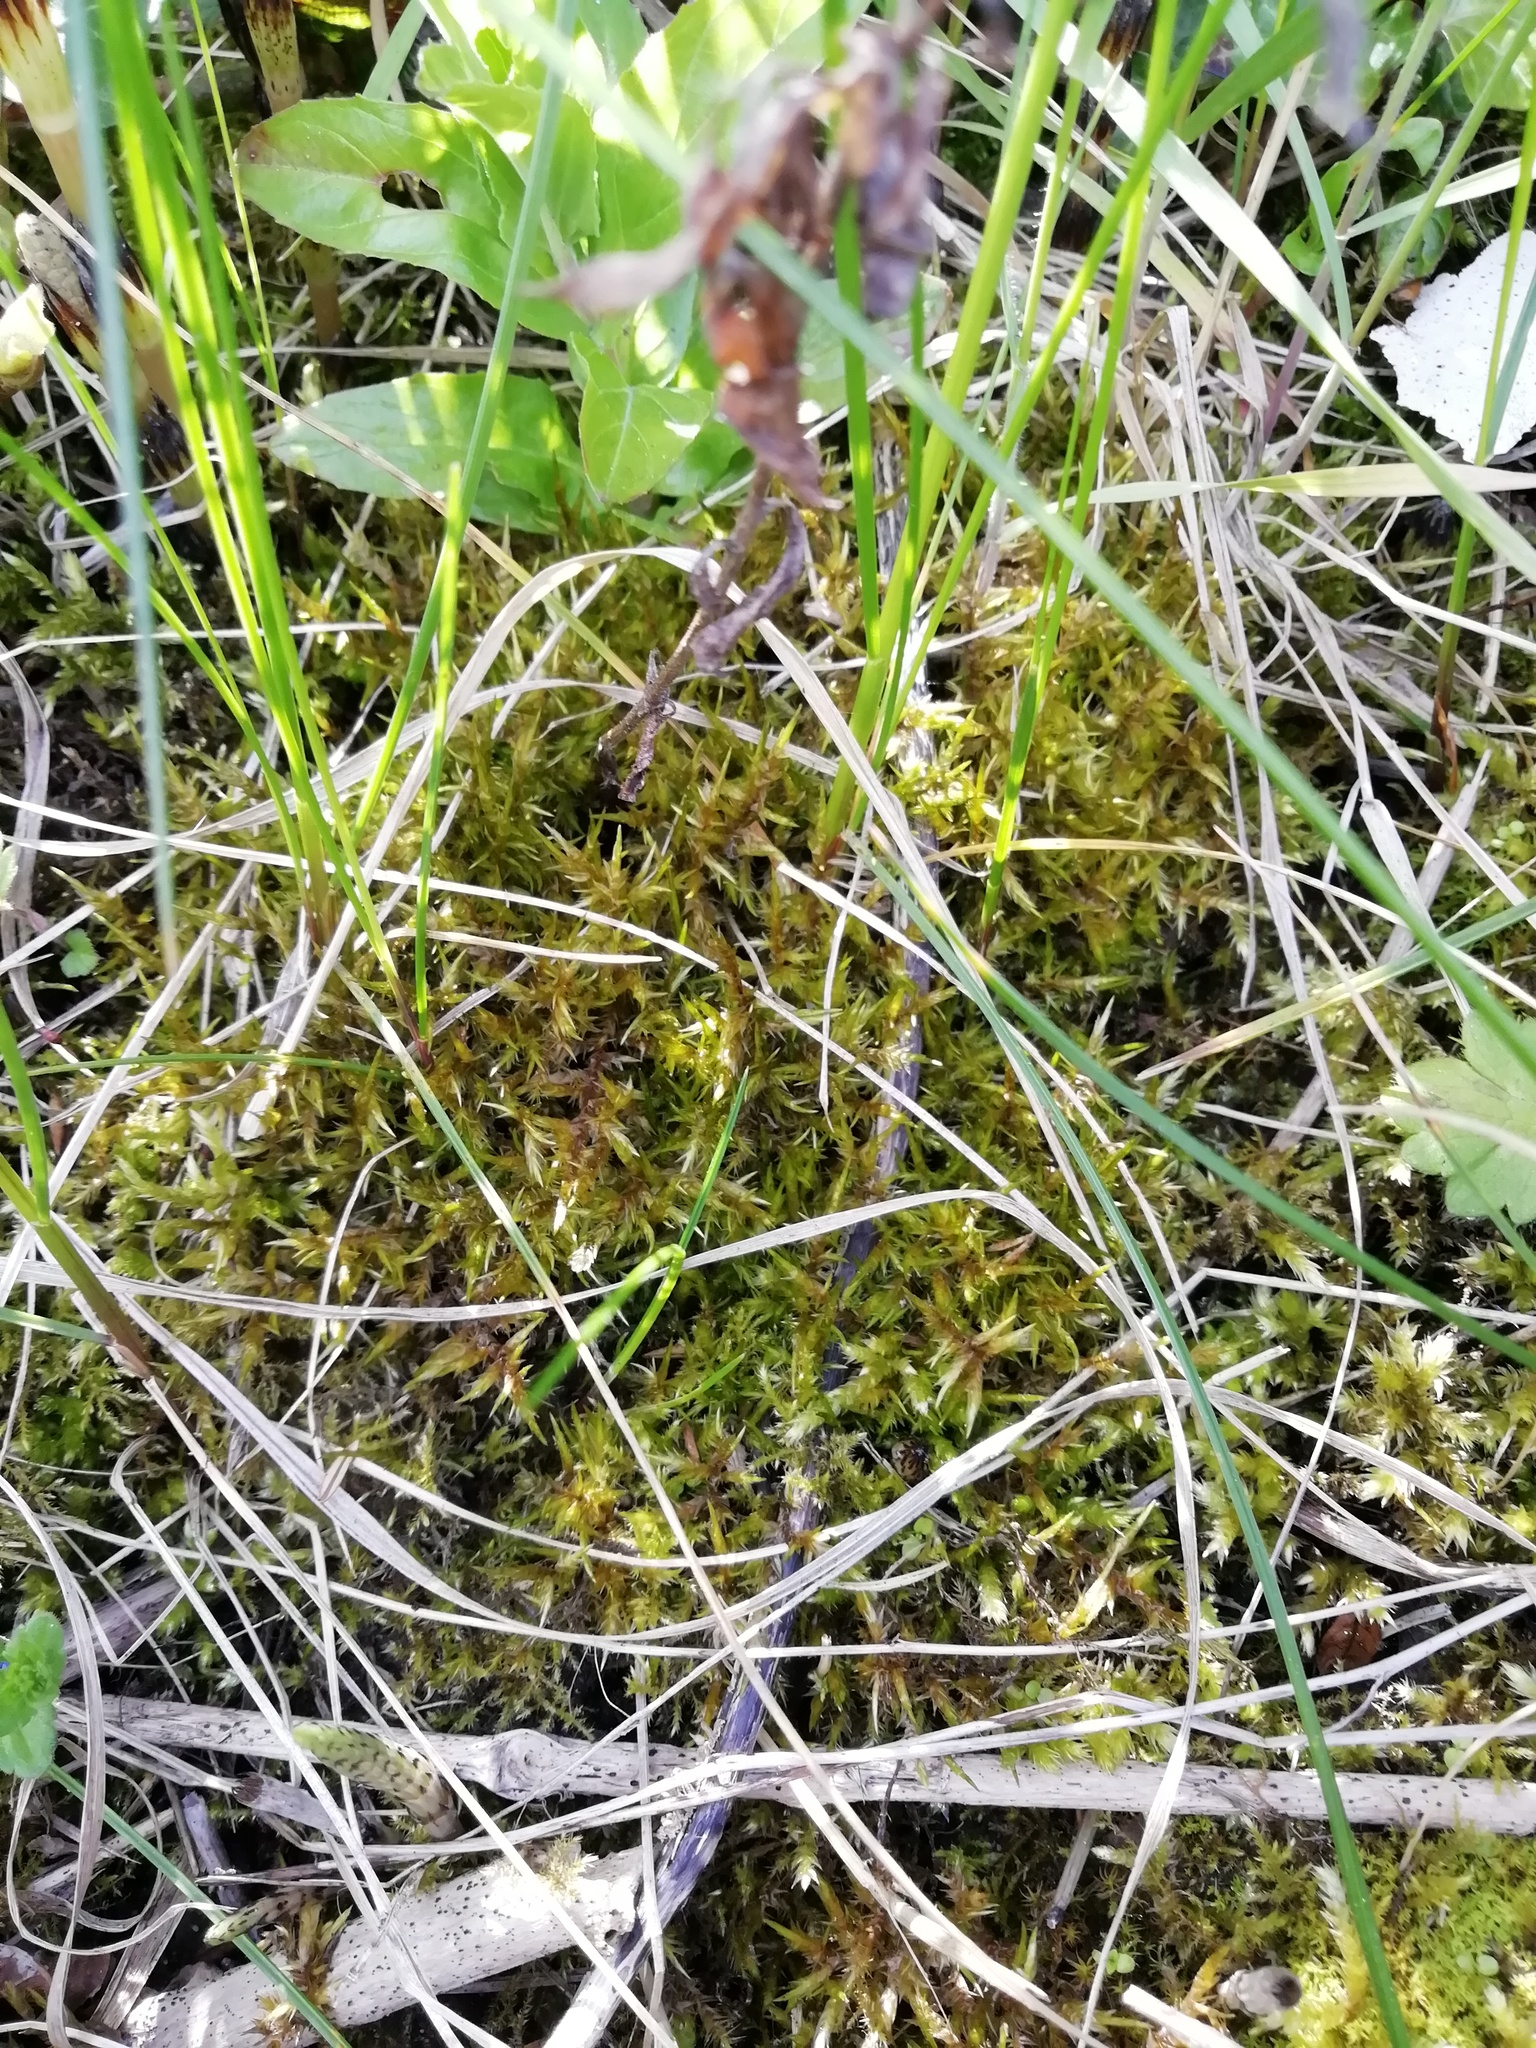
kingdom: Plantae
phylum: Bryophyta
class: Bryopsida
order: Hypnales
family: Pylaisiaceae
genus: Calliergonella
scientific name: Calliergonella cuspidata
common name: Common large wetland moss
